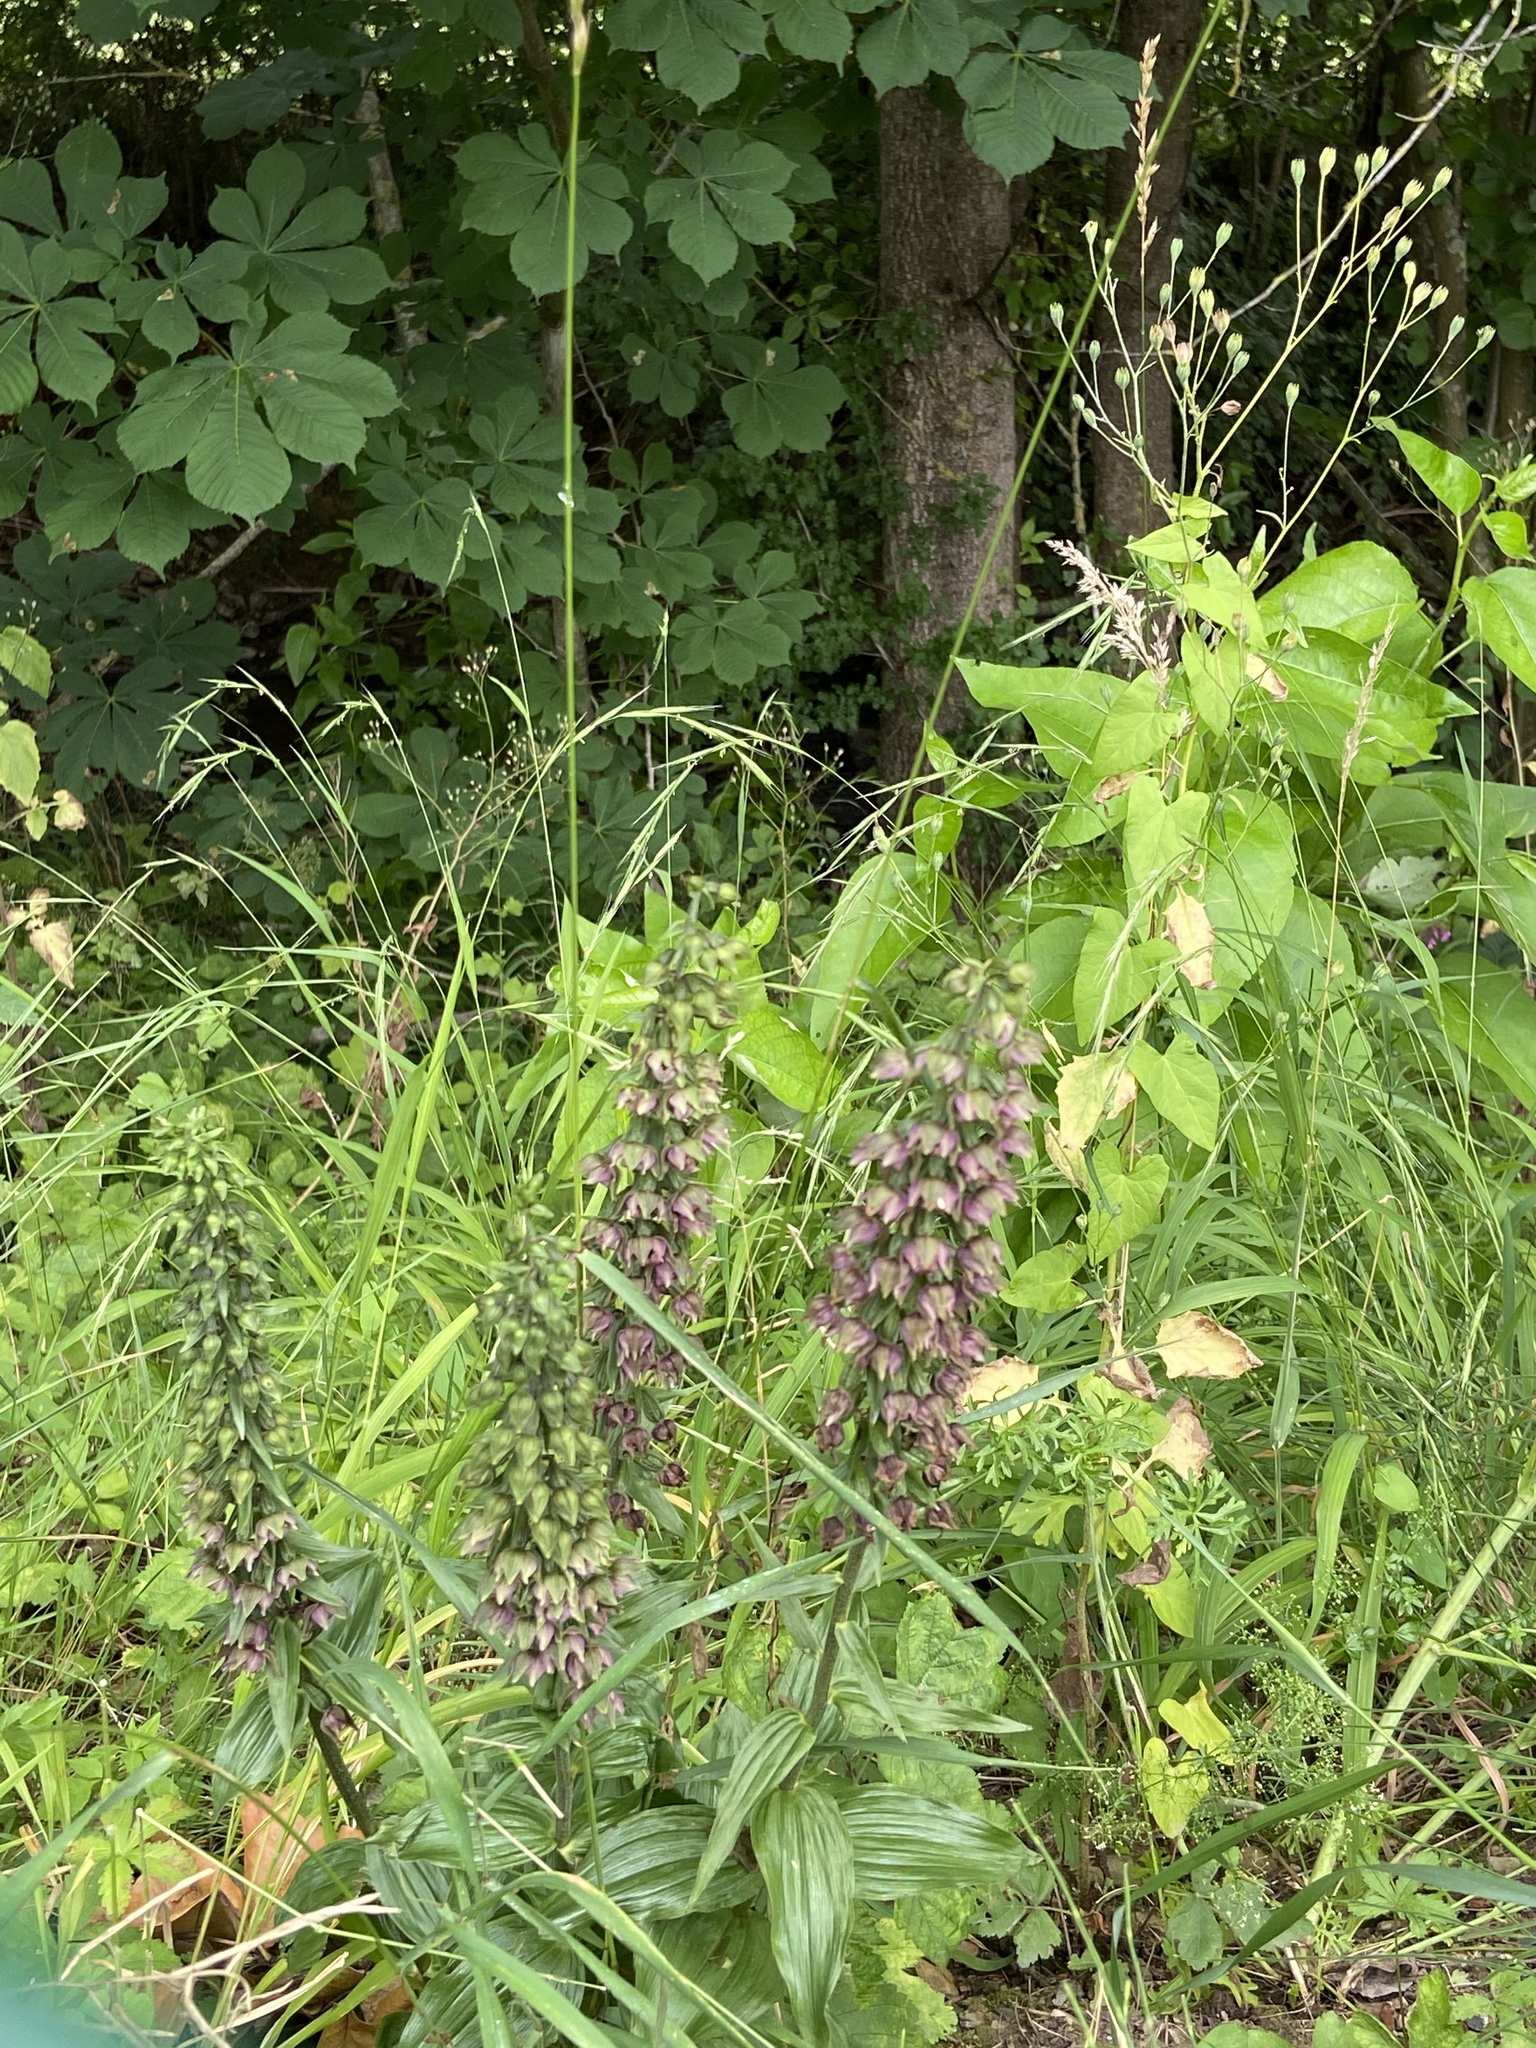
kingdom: Plantae
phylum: Tracheophyta
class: Liliopsida
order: Asparagales
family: Orchidaceae
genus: Epipactis
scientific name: Epipactis helleborine
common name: Broad-leaved helleborine
